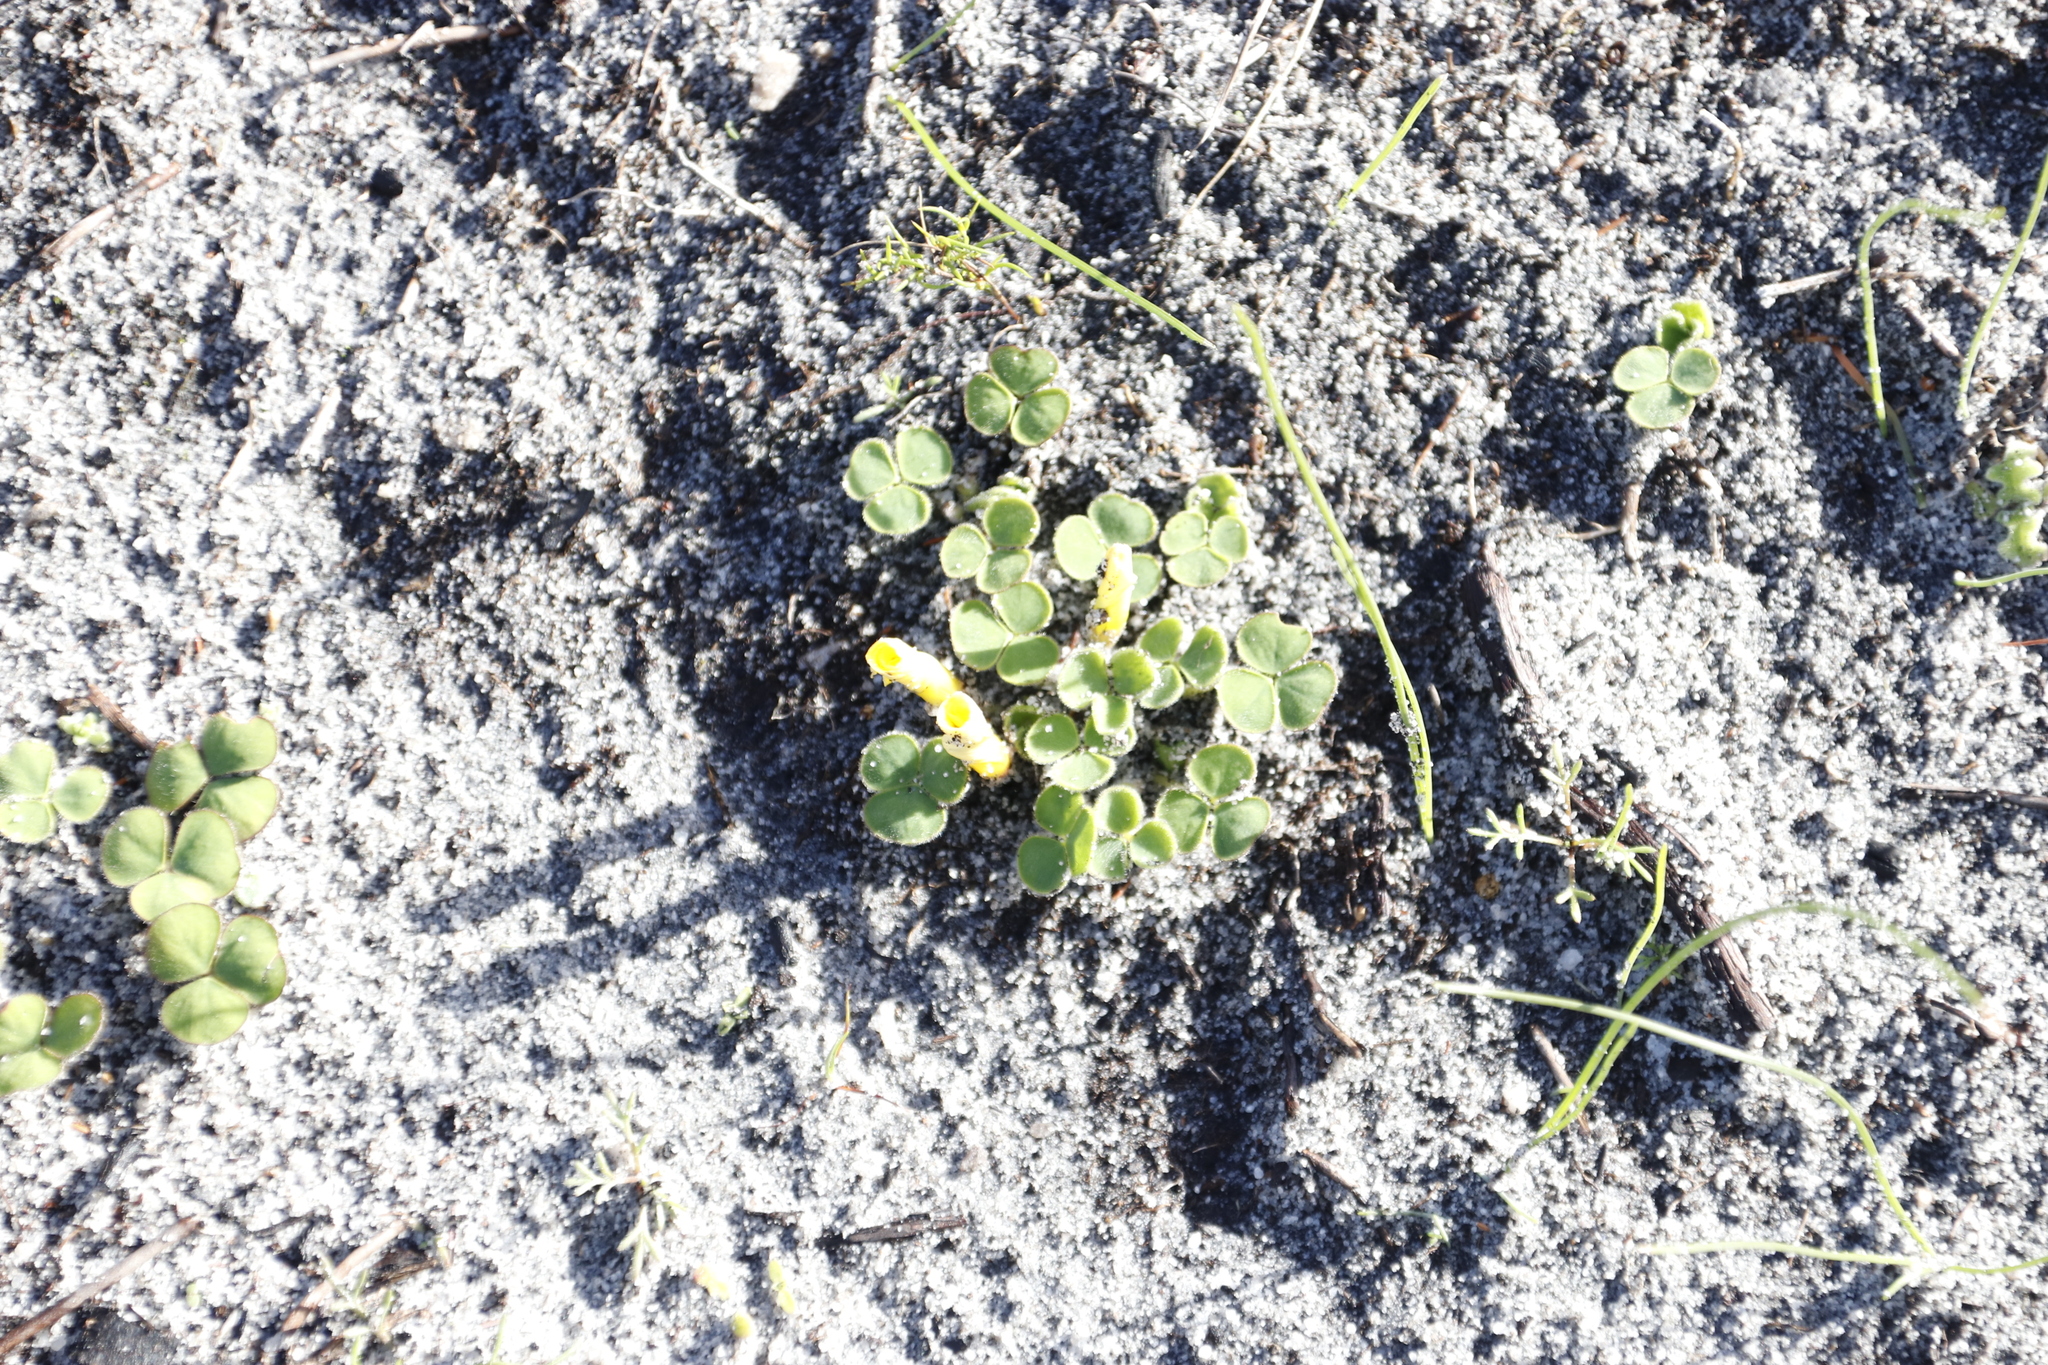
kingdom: Plantae
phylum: Tracheophyta
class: Magnoliopsida
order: Oxalidales
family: Oxalidaceae
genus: Oxalis
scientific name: Oxalis luteola
